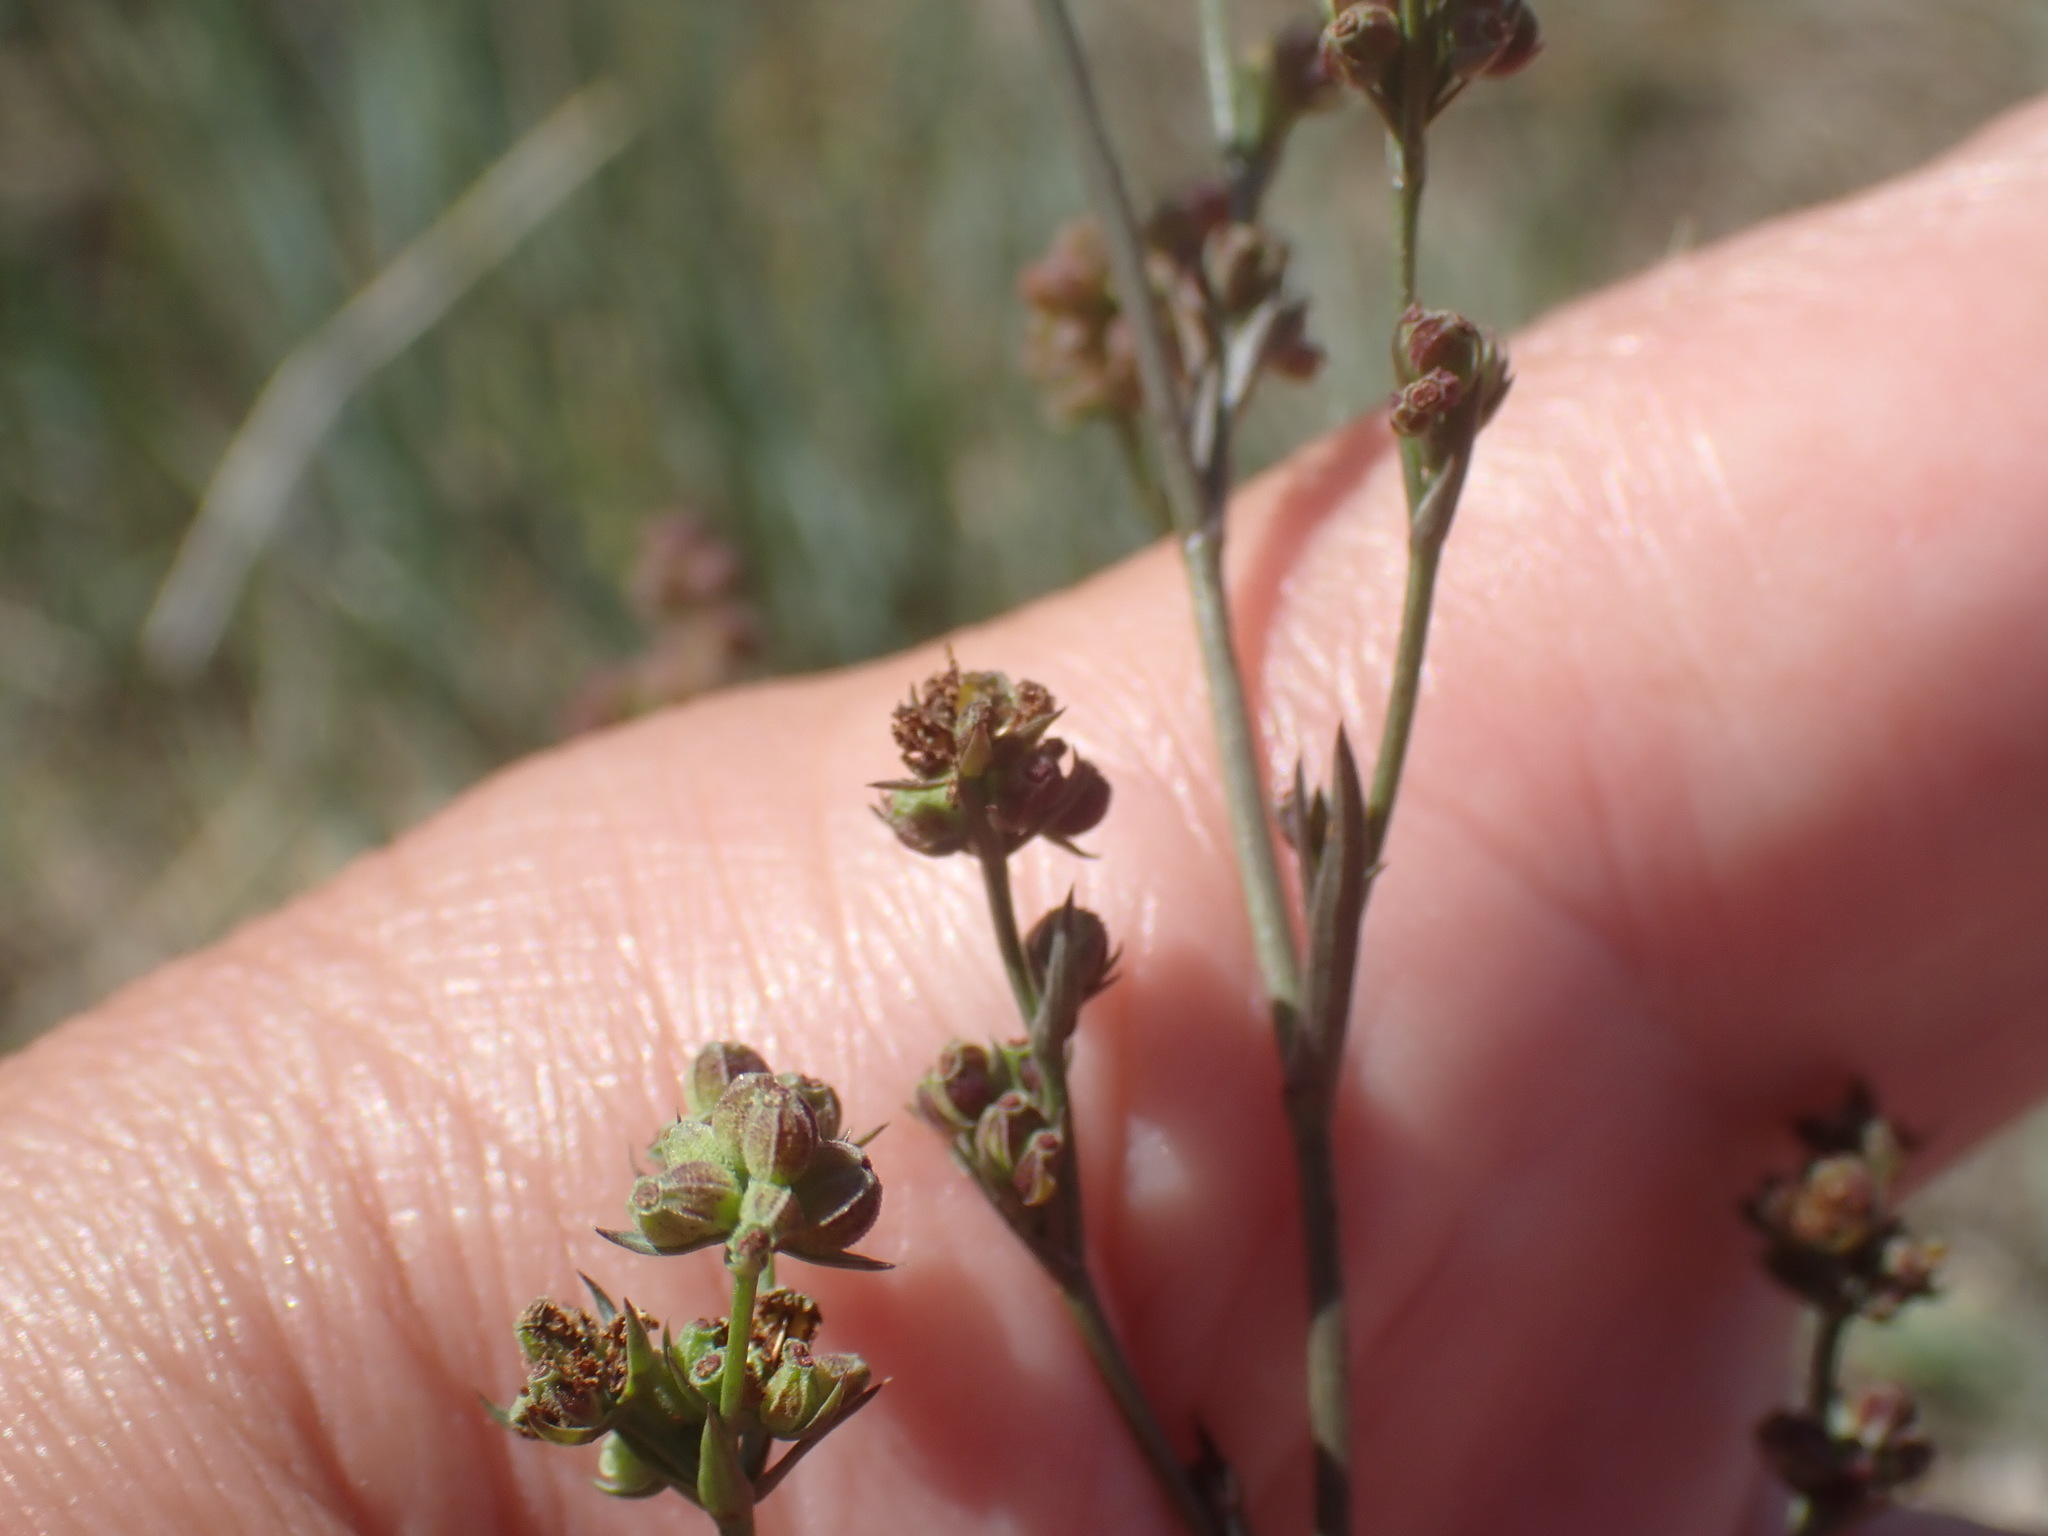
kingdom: Plantae
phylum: Tracheophyta
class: Magnoliopsida
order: Apiales
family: Apiaceae
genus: Bupleurum
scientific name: Bupleurum tenuissimum
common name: Slender hare's-ear
